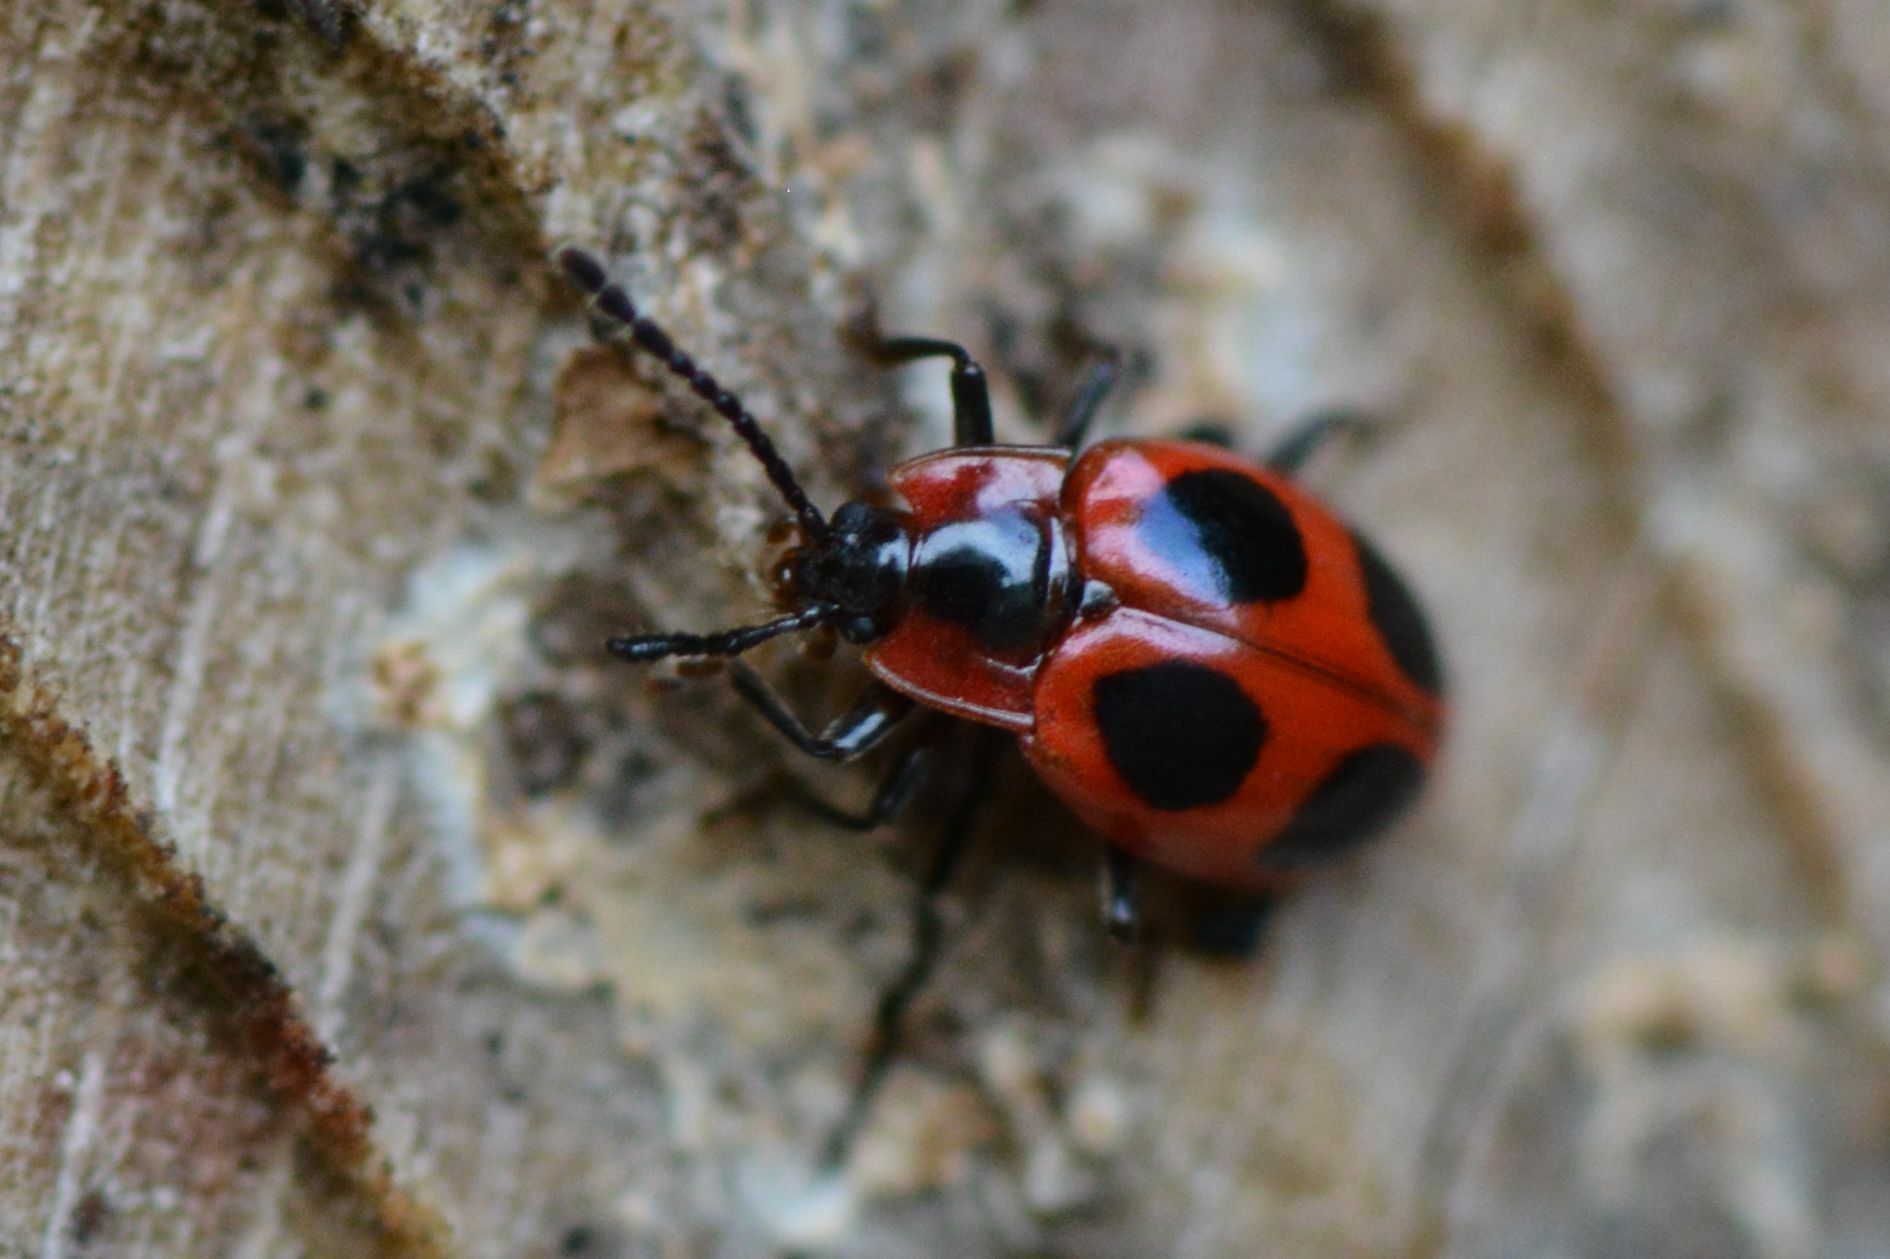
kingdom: Animalia
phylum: Arthropoda
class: Insecta
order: Coleoptera
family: Endomychidae
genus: Endomychus
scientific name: Endomychus coccineus
